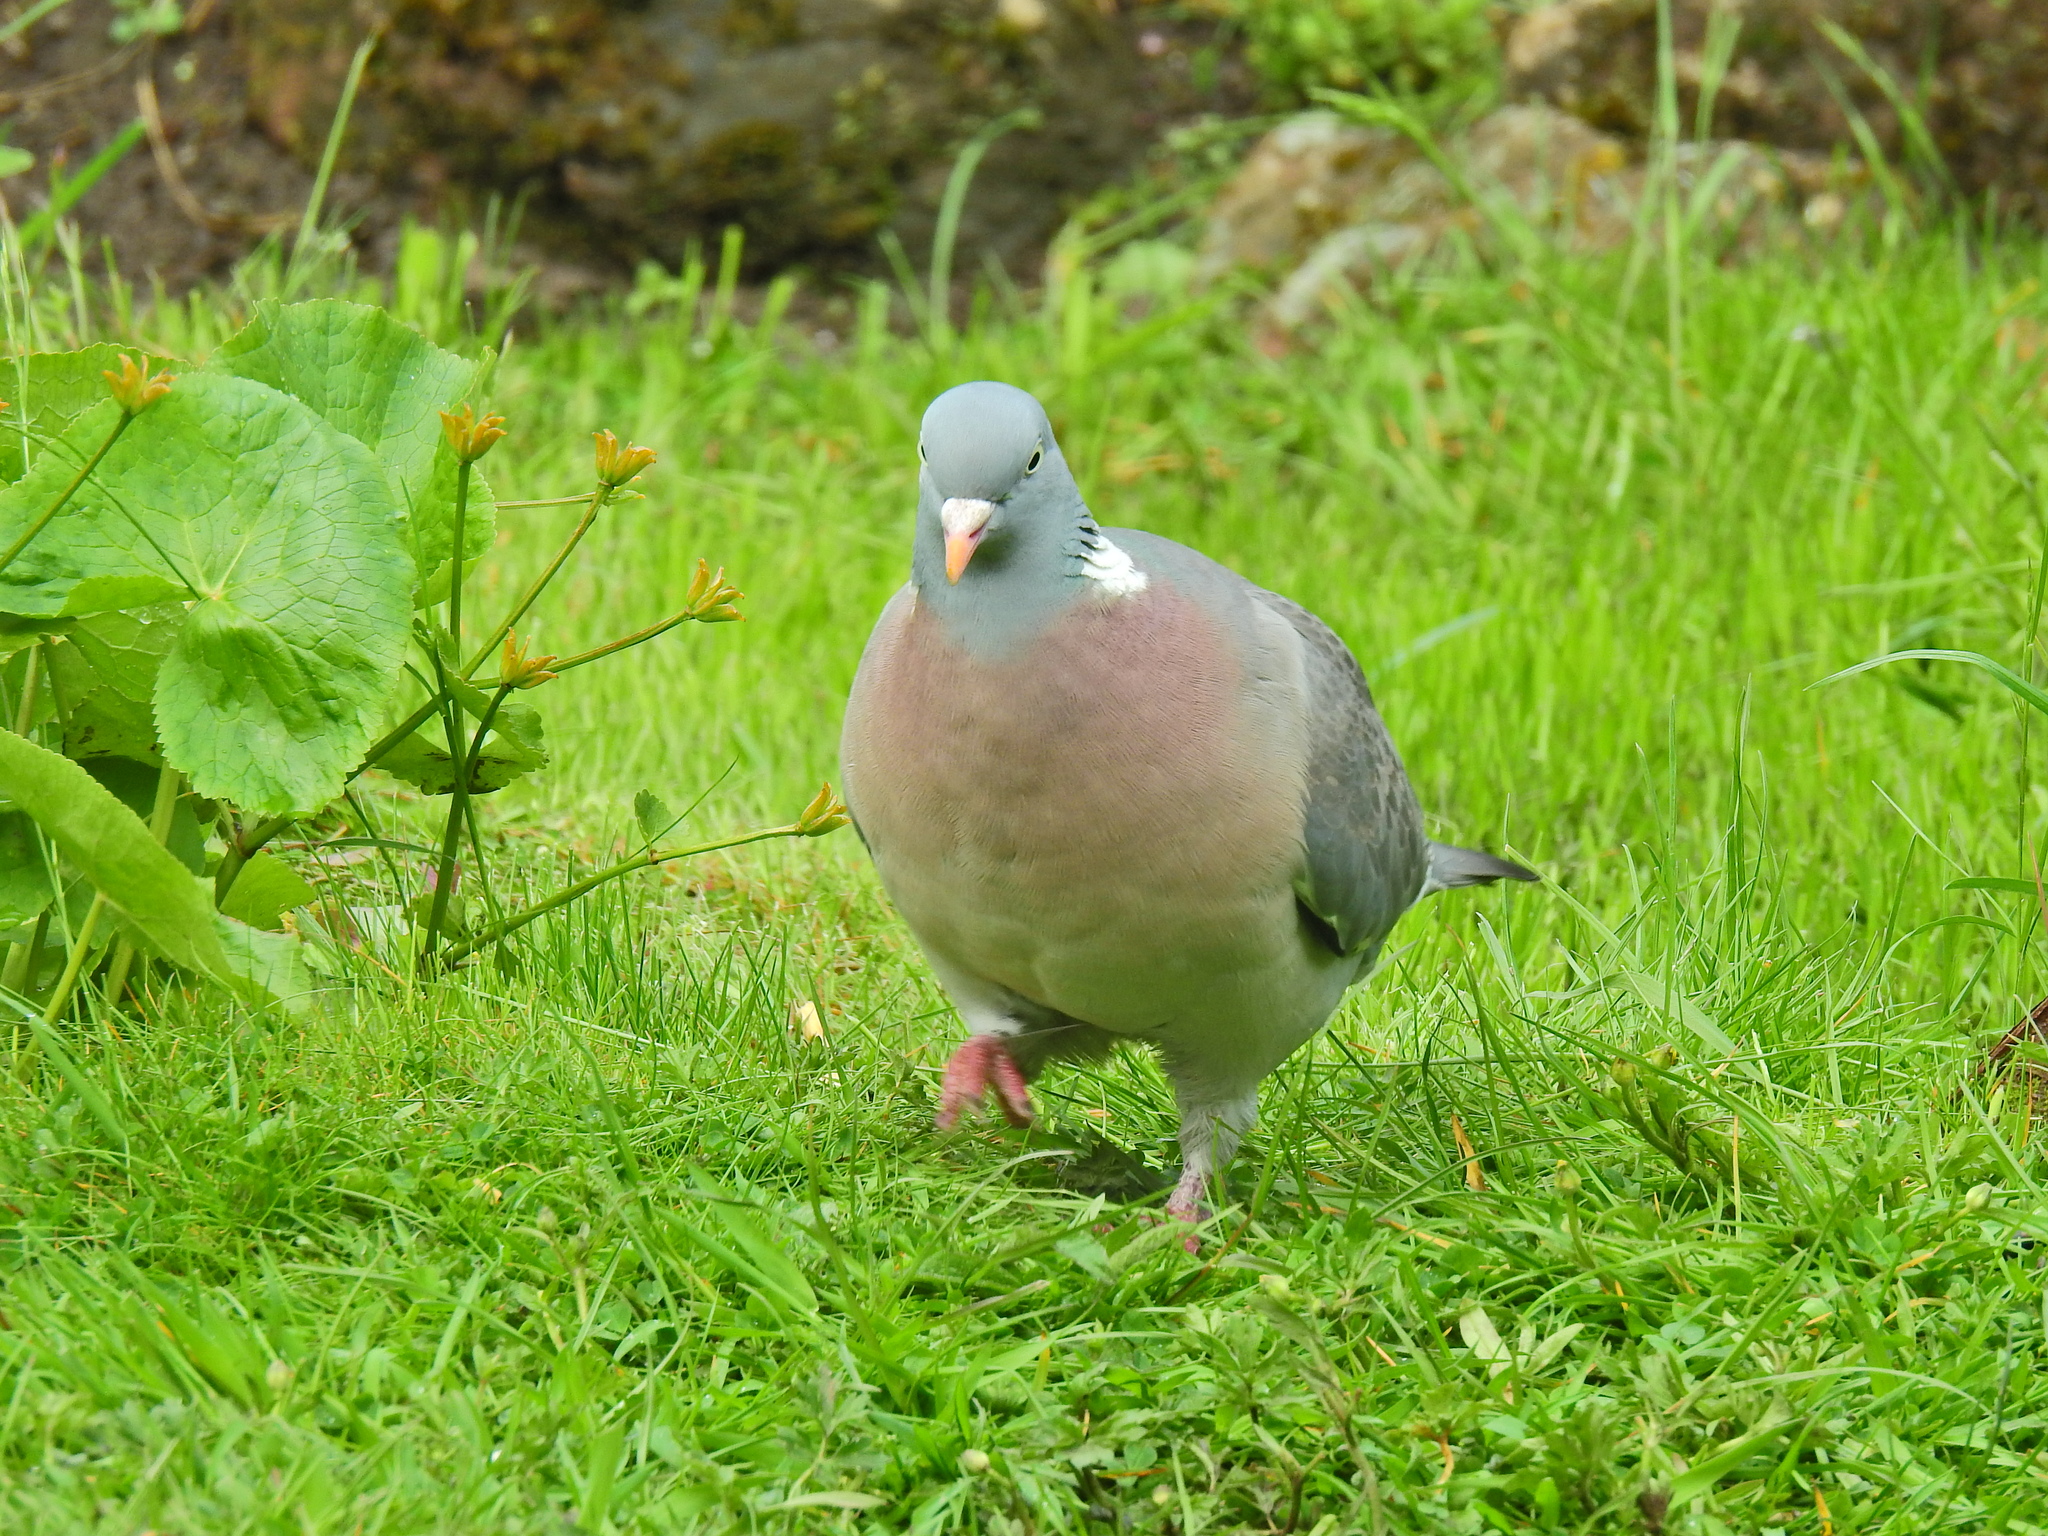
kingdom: Animalia
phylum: Chordata
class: Aves
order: Columbiformes
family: Columbidae
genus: Columba
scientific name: Columba palumbus
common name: Common wood pigeon
